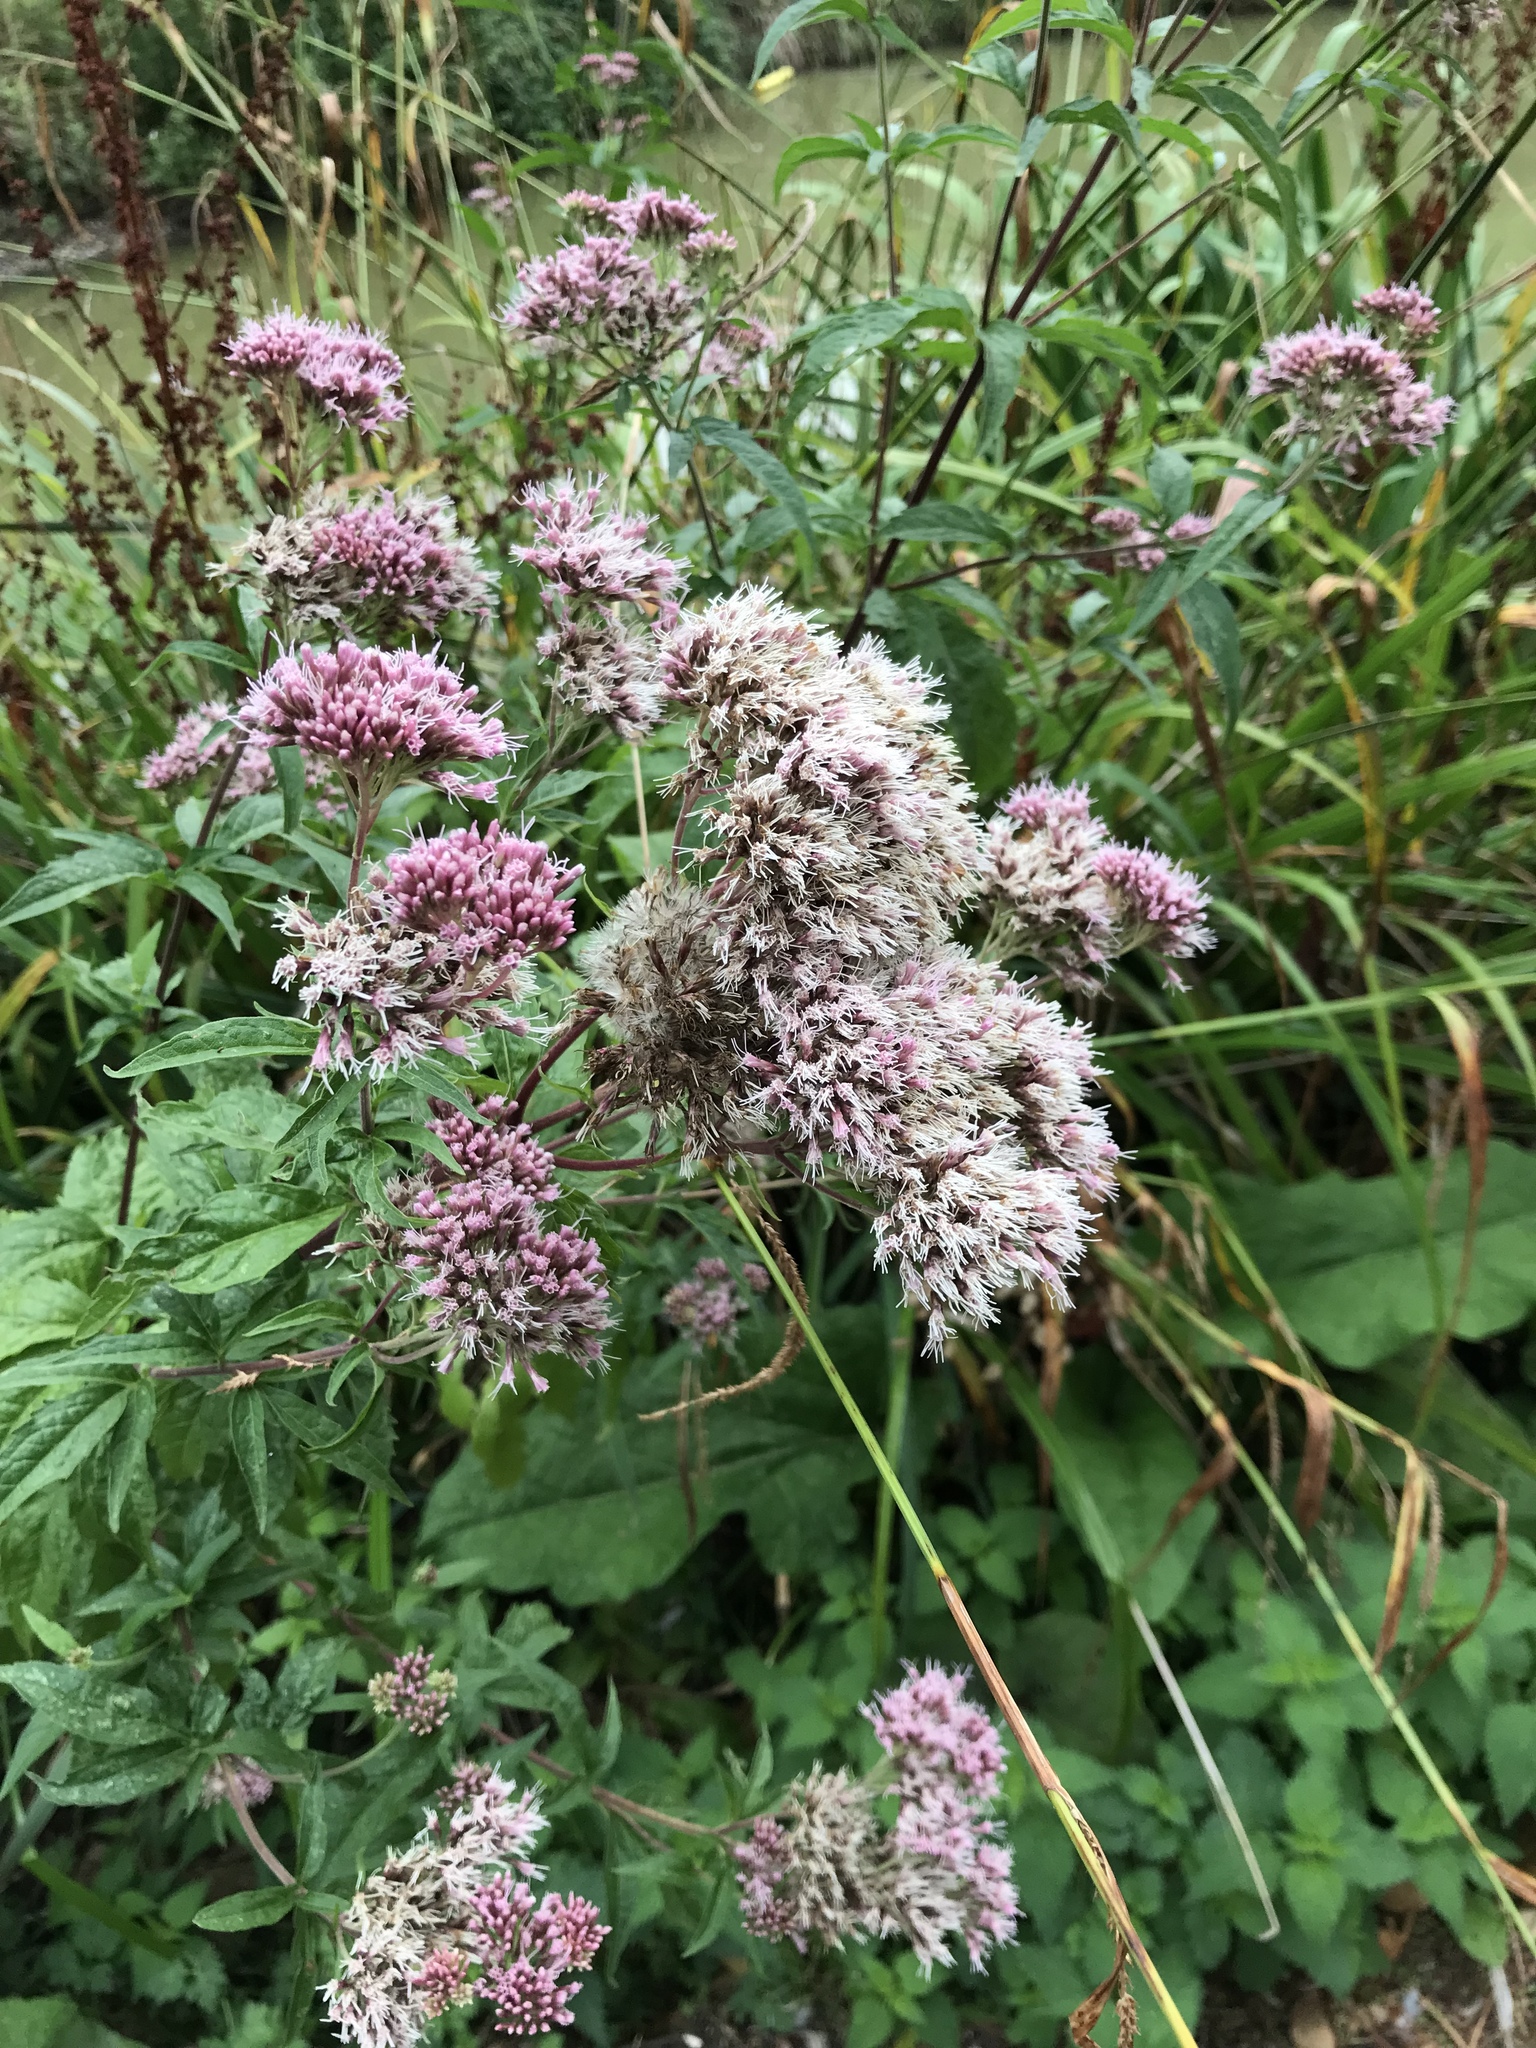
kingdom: Plantae
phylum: Tracheophyta
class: Magnoliopsida
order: Asterales
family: Asteraceae
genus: Eupatorium
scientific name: Eupatorium cannabinum
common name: Hemp-agrimony
